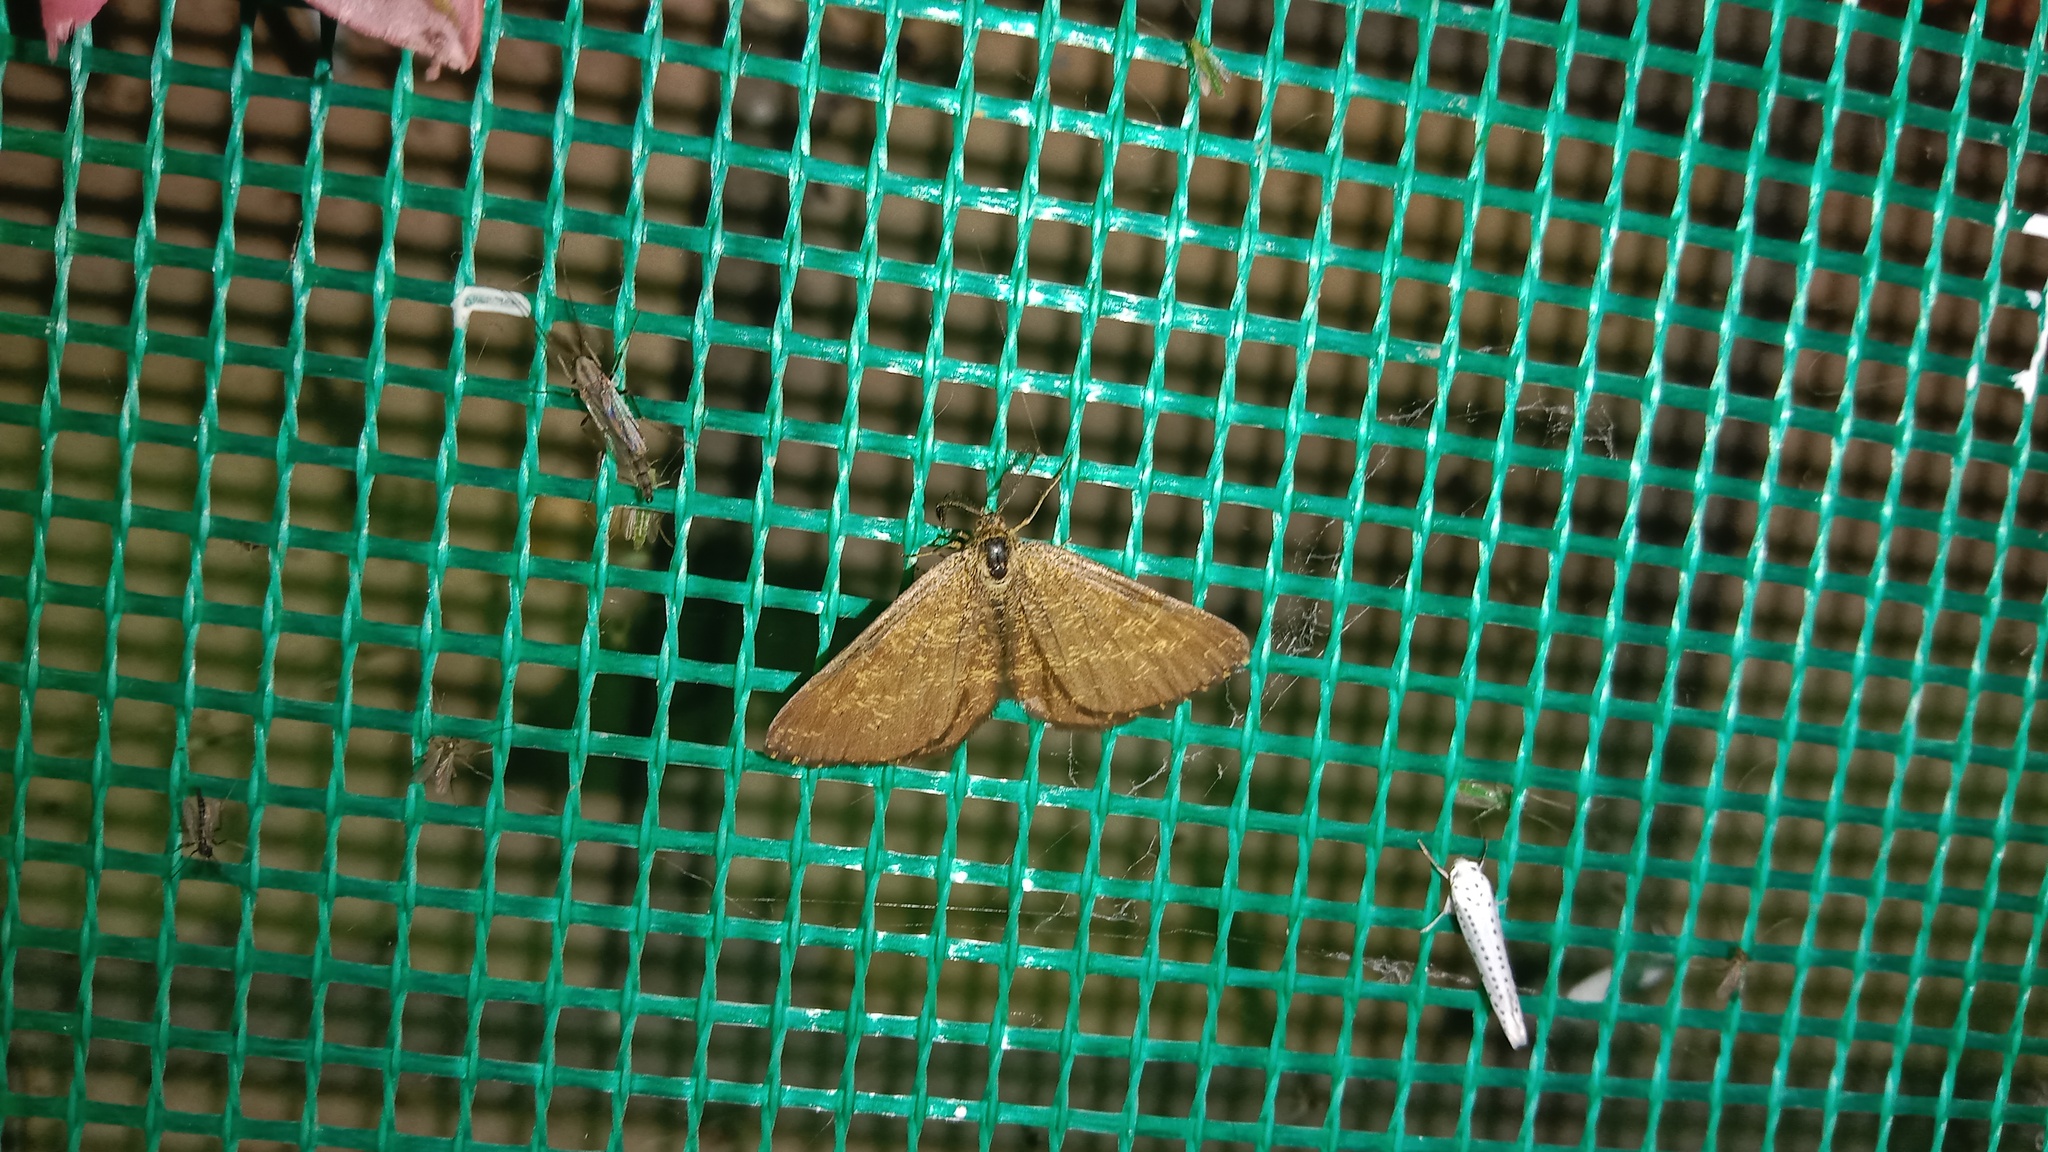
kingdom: Animalia
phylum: Arthropoda
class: Insecta
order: Lepidoptera
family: Geometridae
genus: Ematurga
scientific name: Ematurga atomaria
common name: Common heath
